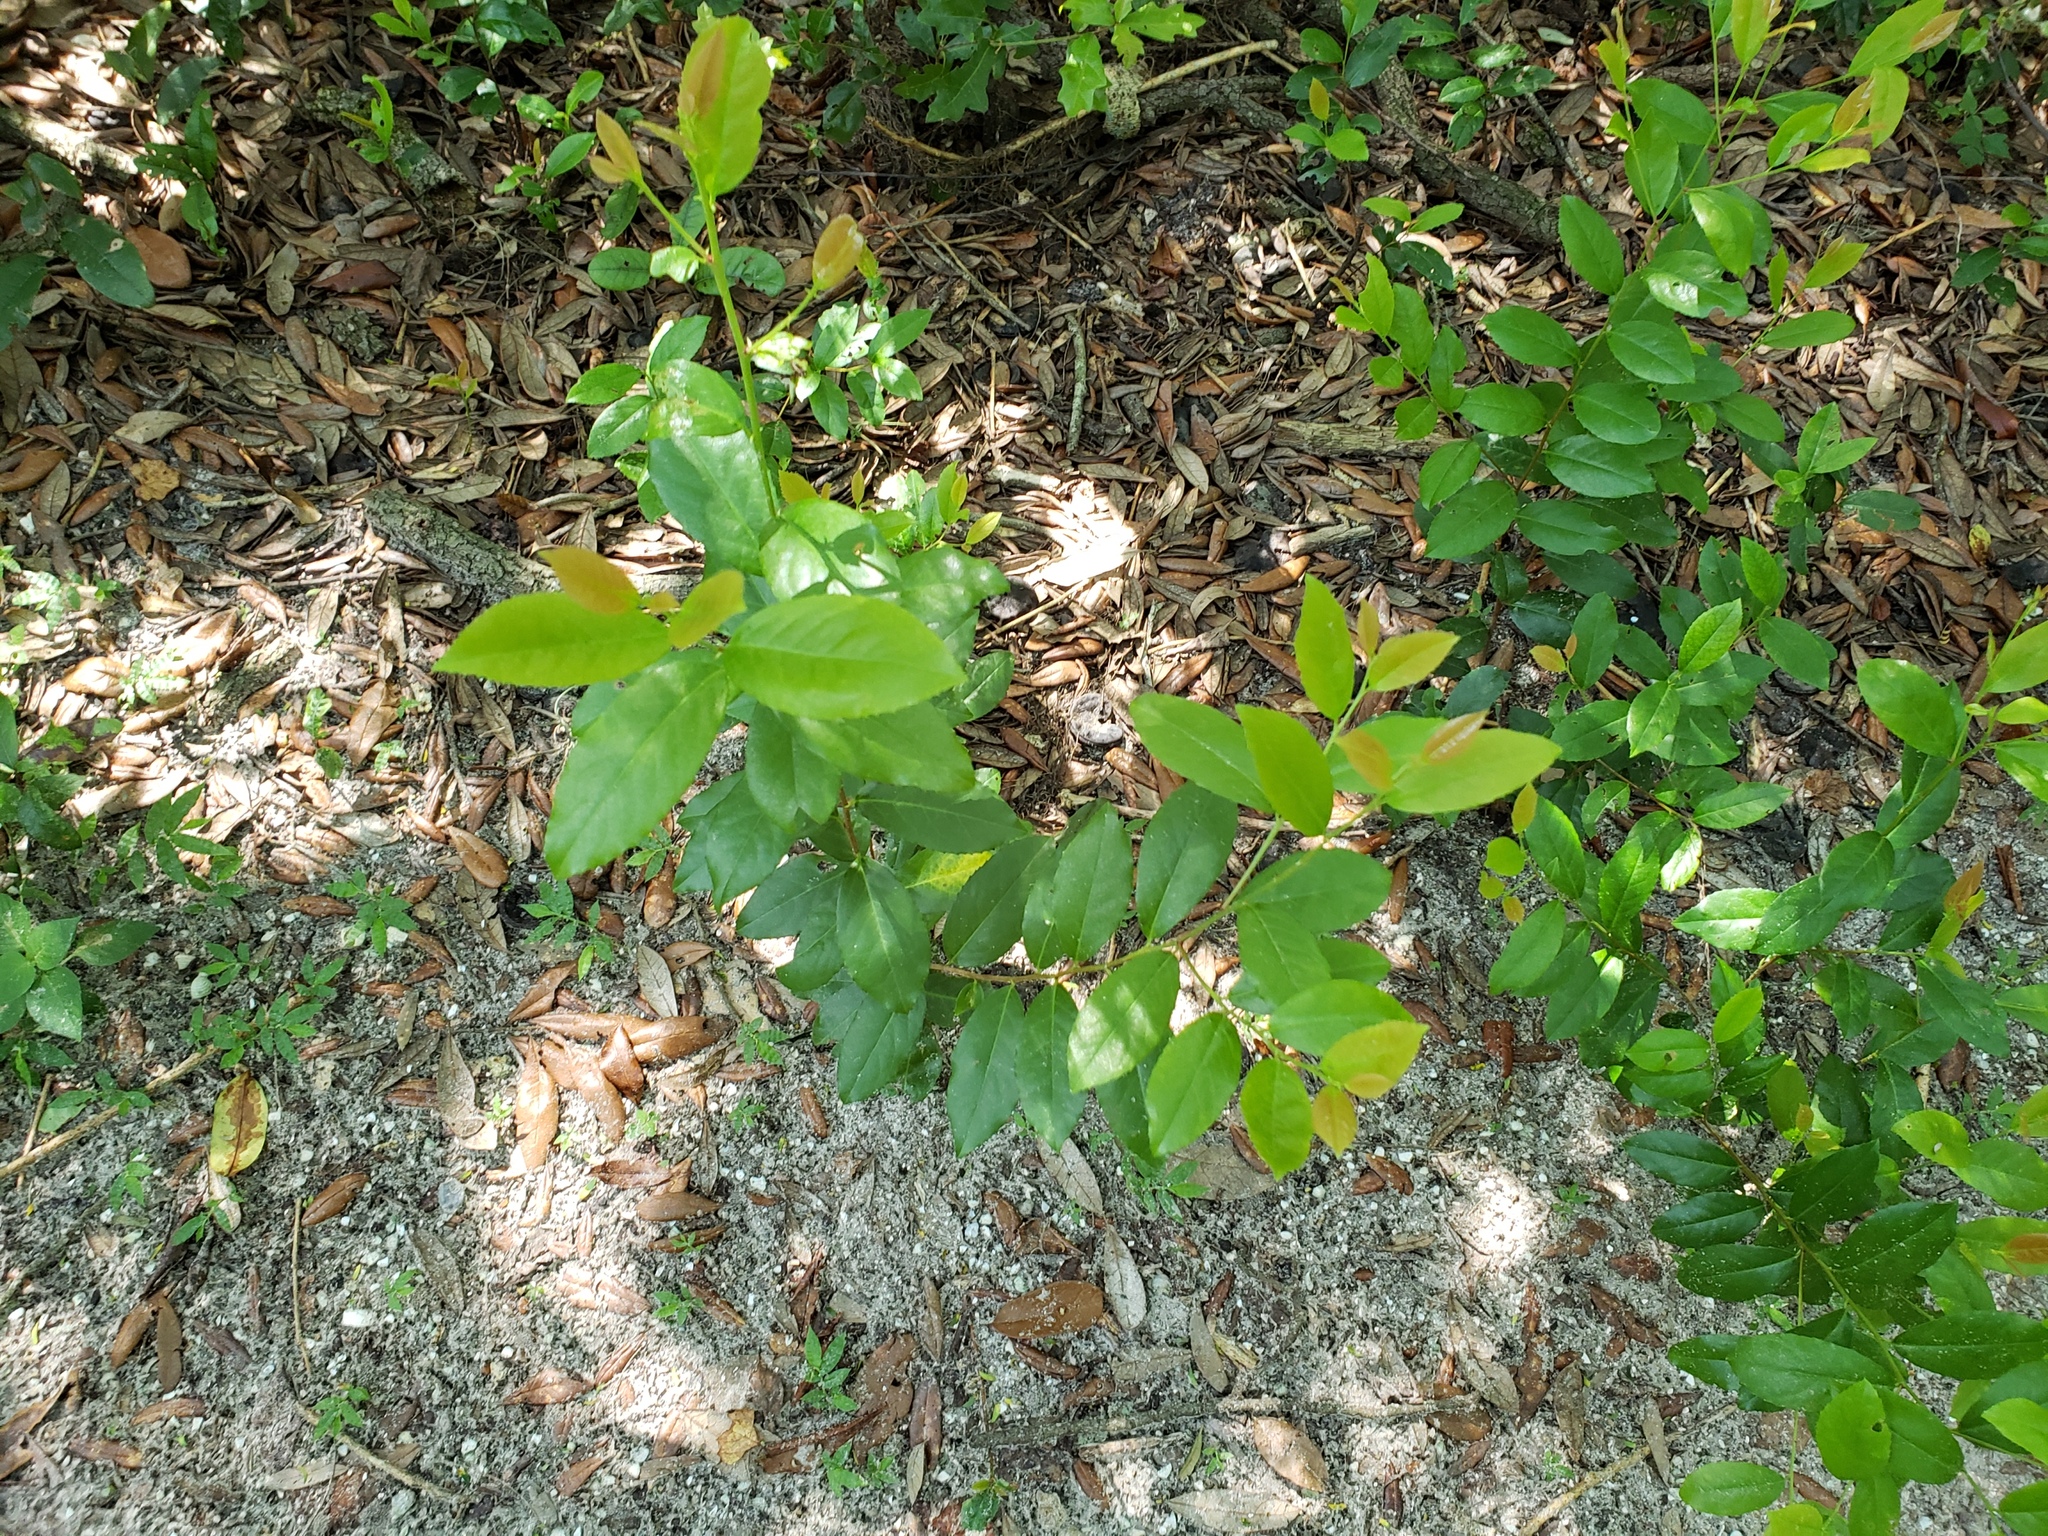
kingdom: Plantae
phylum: Tracheophyta
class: Magnoliopsida
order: Rosales
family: Rosaceae
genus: Prunus
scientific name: Prunus caroliniana
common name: Carolina laurel cherry
